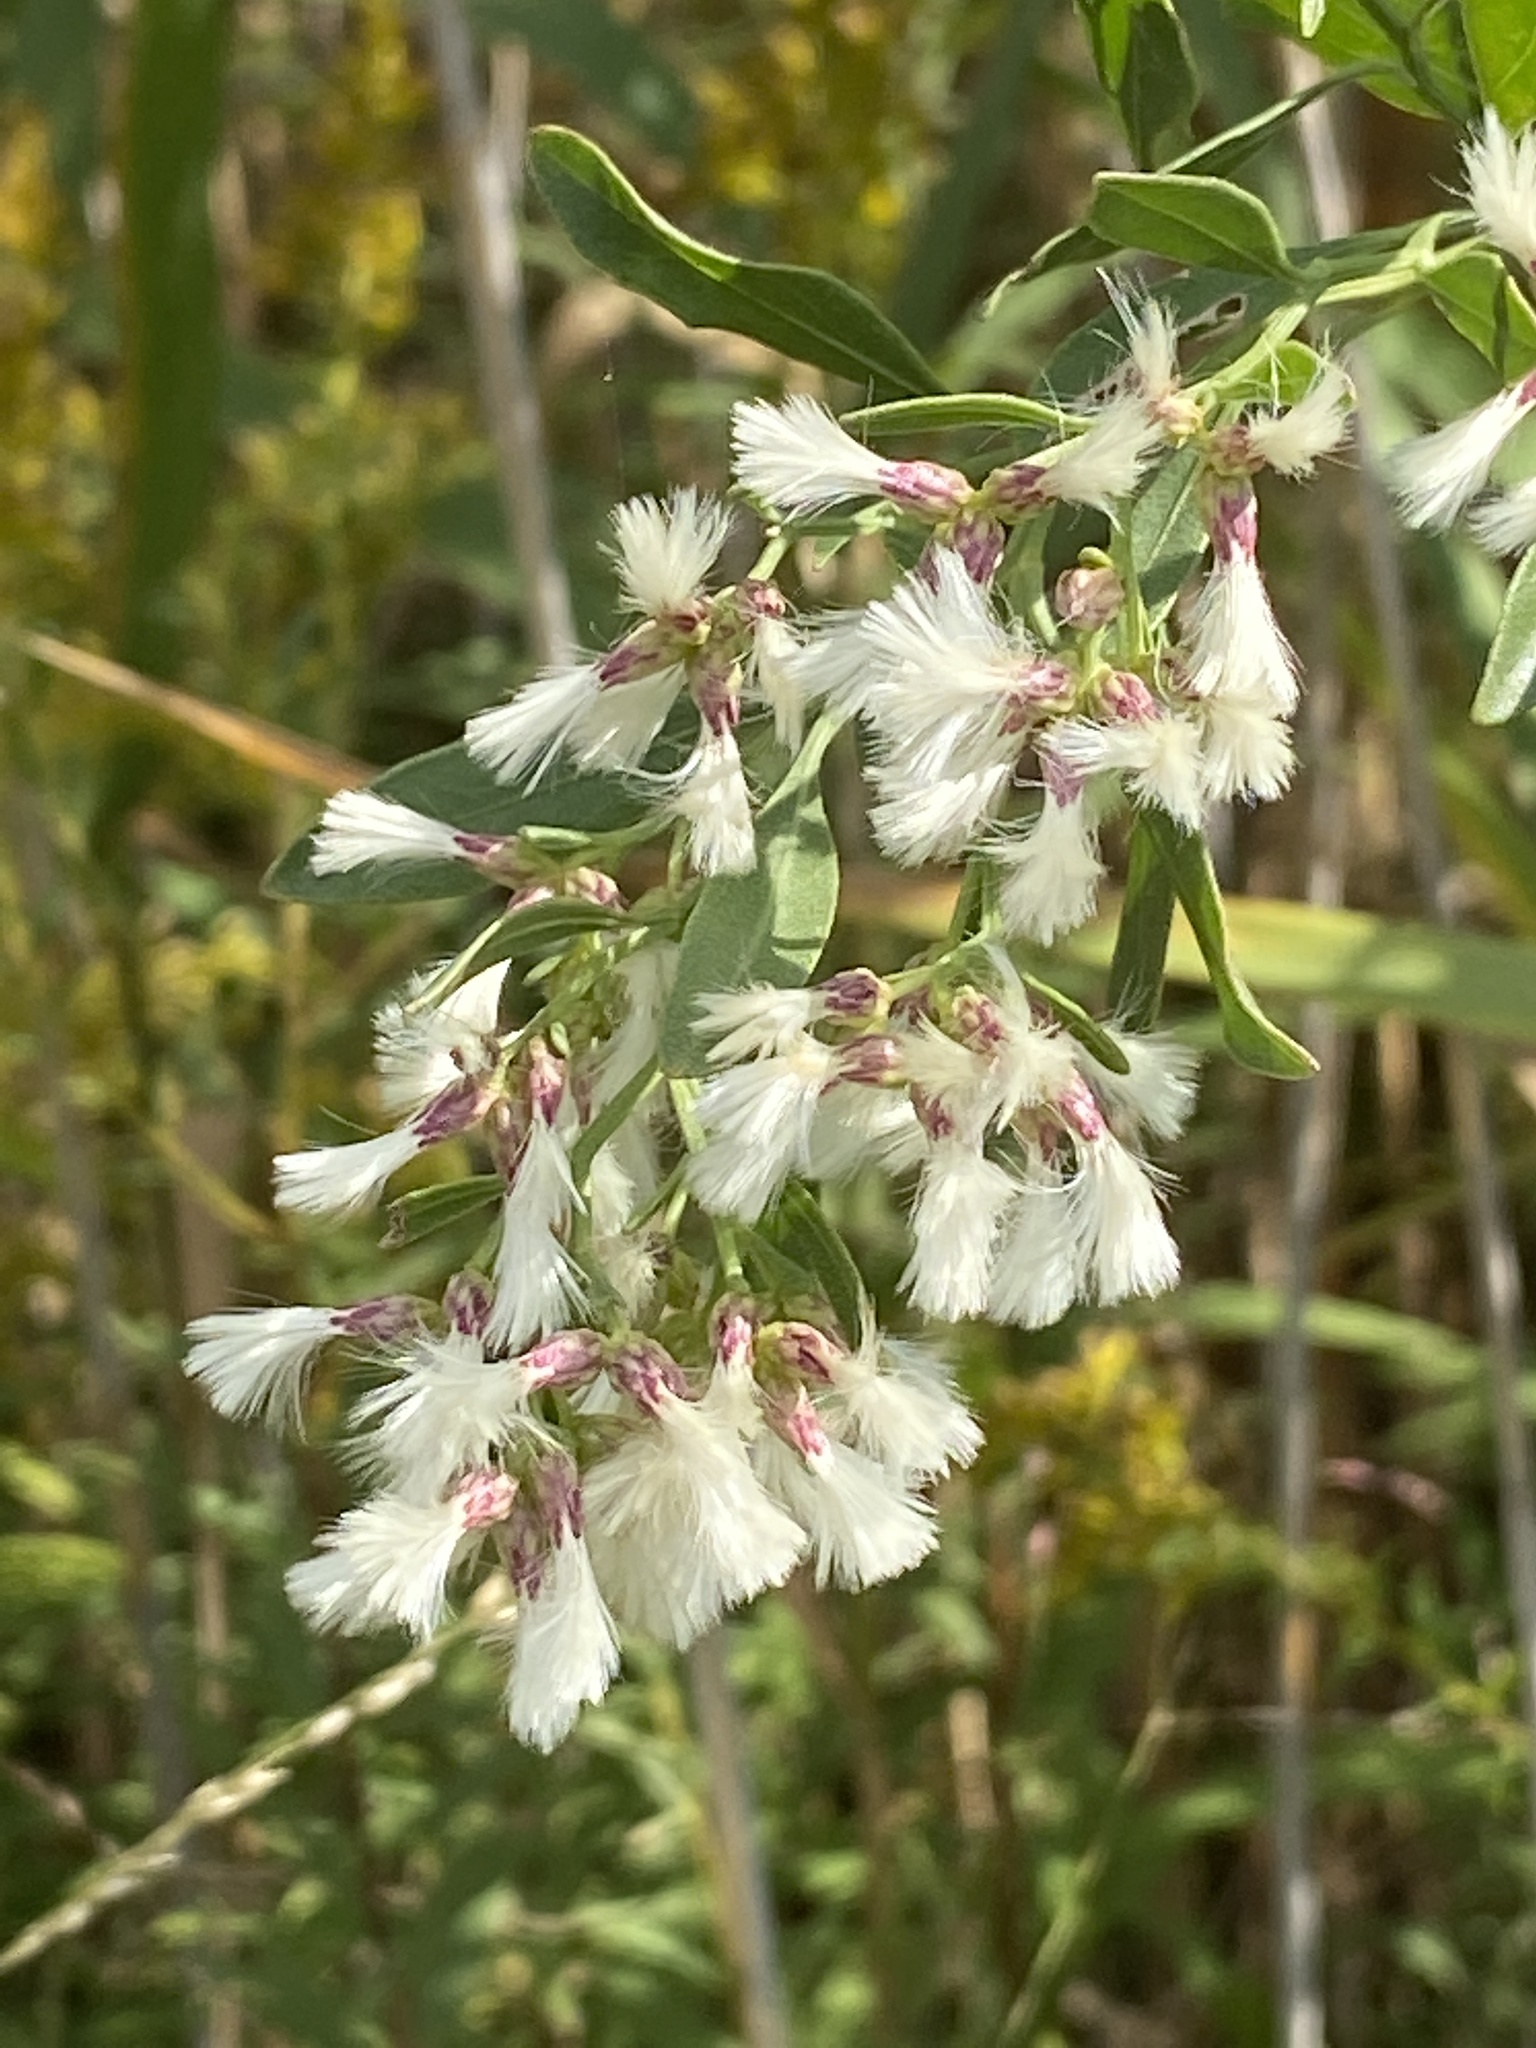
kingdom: Plantae
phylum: Tracheophyta
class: Magnoliopsida
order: Asterales
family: Asteraceae
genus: Baccharis
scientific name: Baccharis halimifolia
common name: Eastern baccharis
